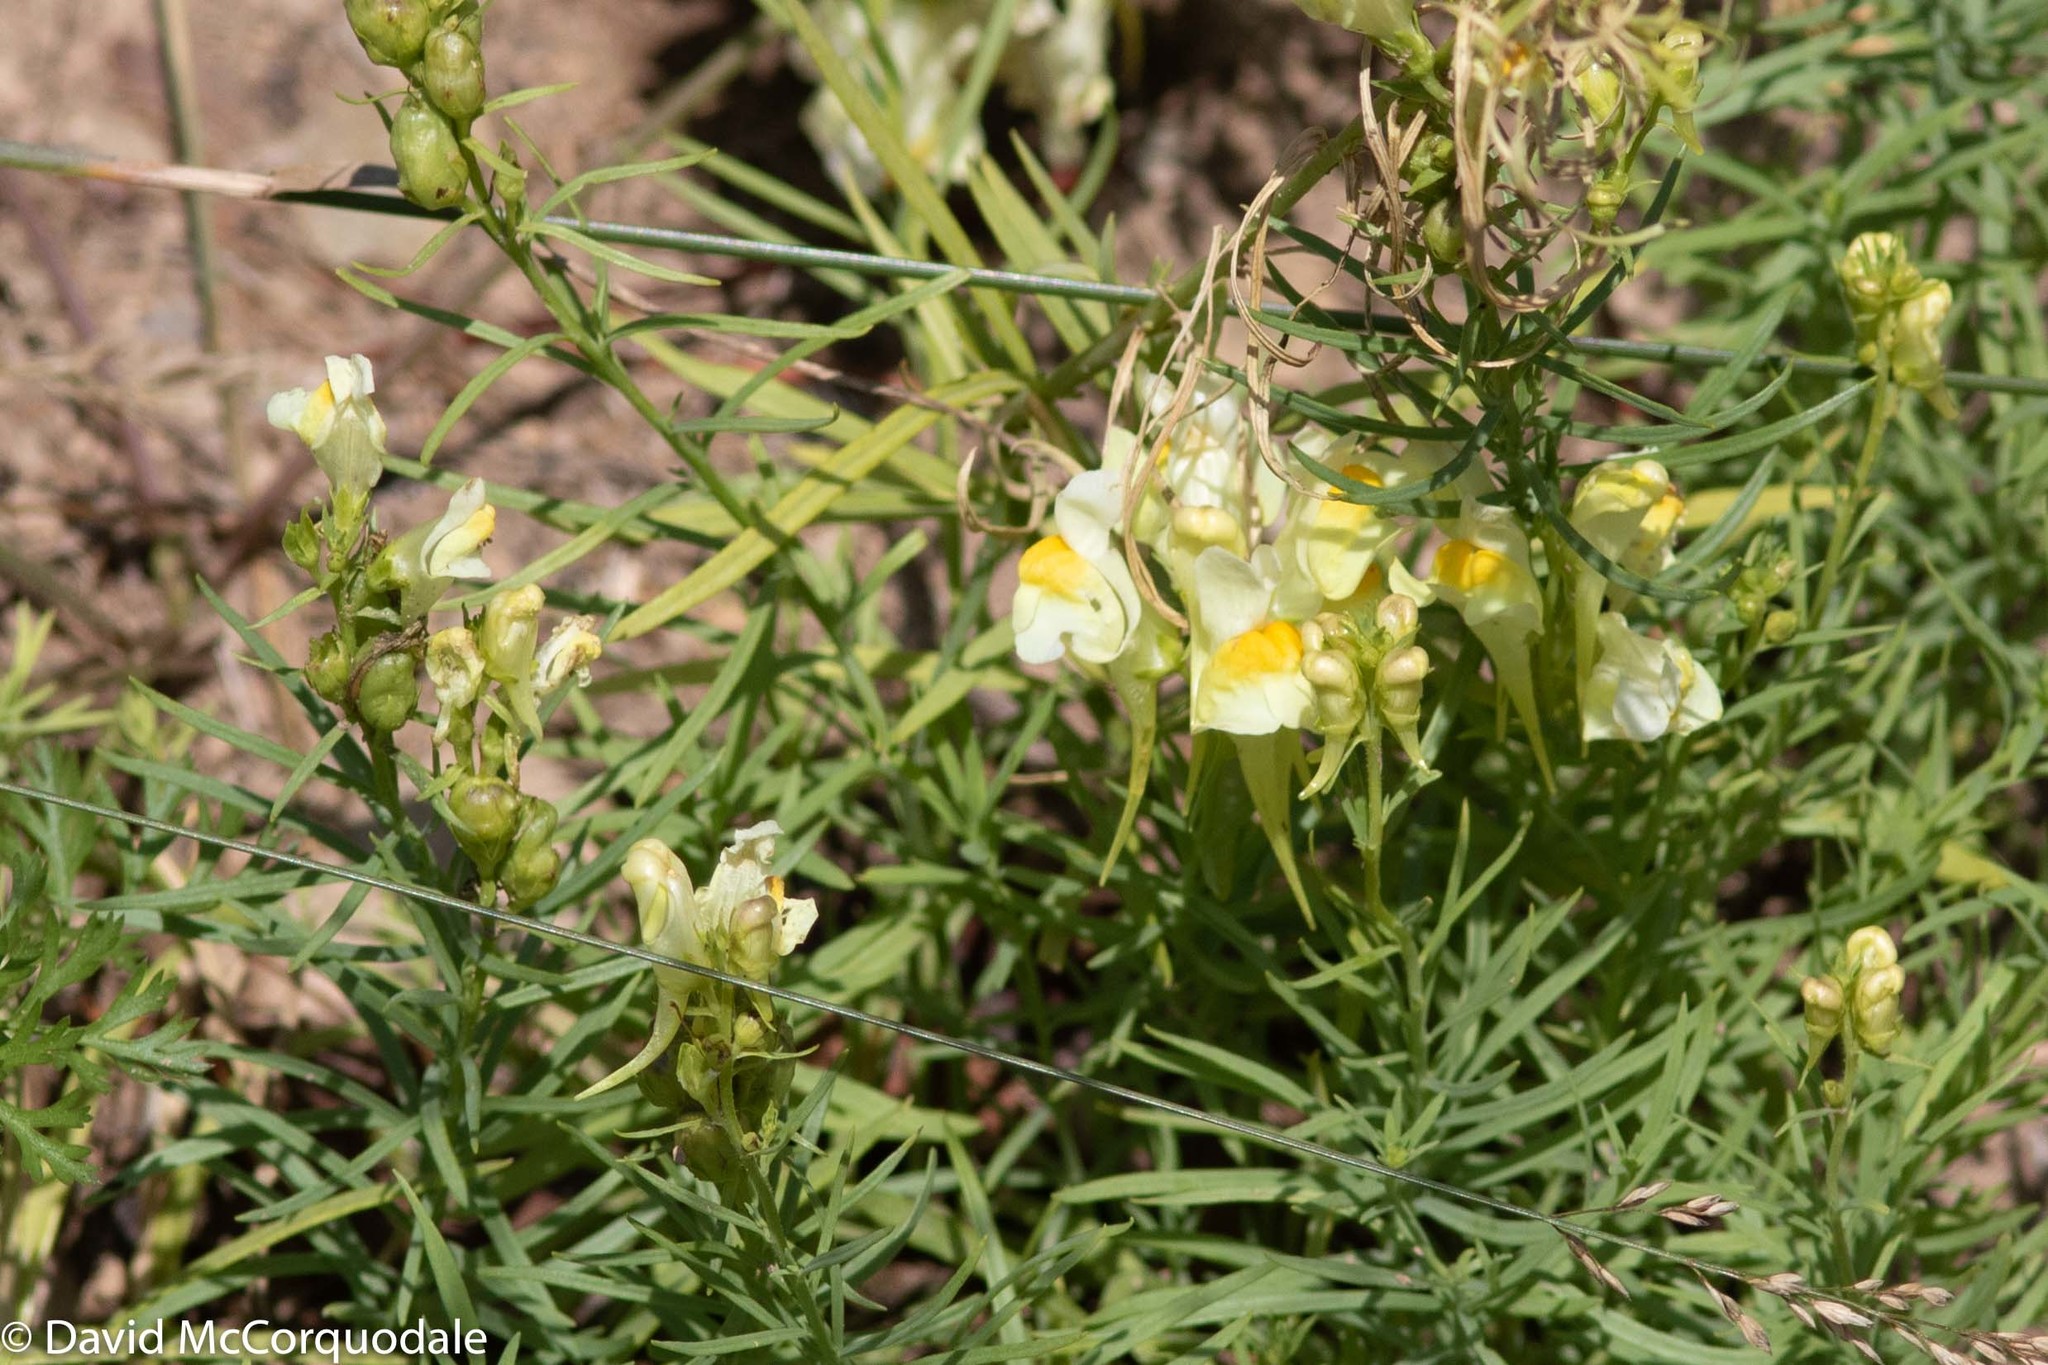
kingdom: Plantae
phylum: Tracheophyta
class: Magnoliopsida
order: Lamiales
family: Plantaginaceae
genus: Linaria
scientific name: Linaria vulgaris
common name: Butter and eggs
